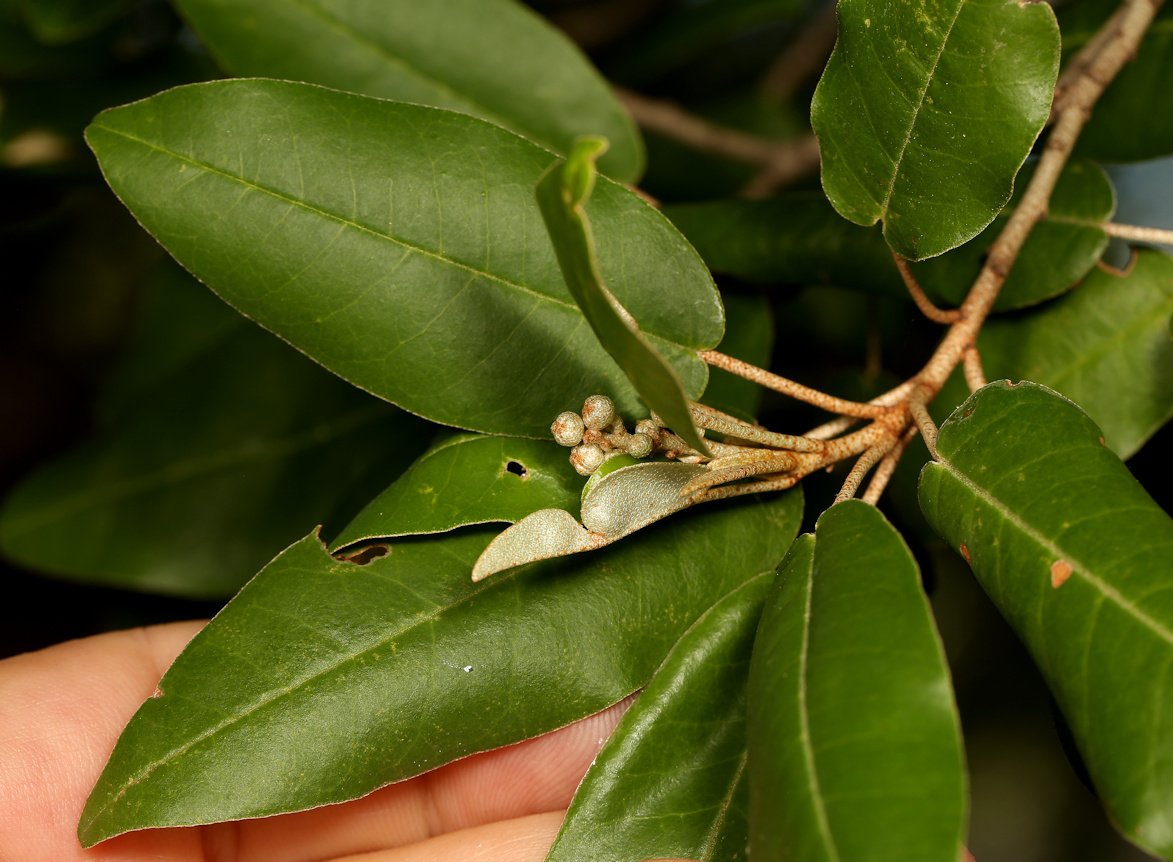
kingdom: Plantae
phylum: Tracheophyta
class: Magnoliopsida
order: Malpighiales
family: Euphorbiaceae
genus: Croton
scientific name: Croton gratissimus
